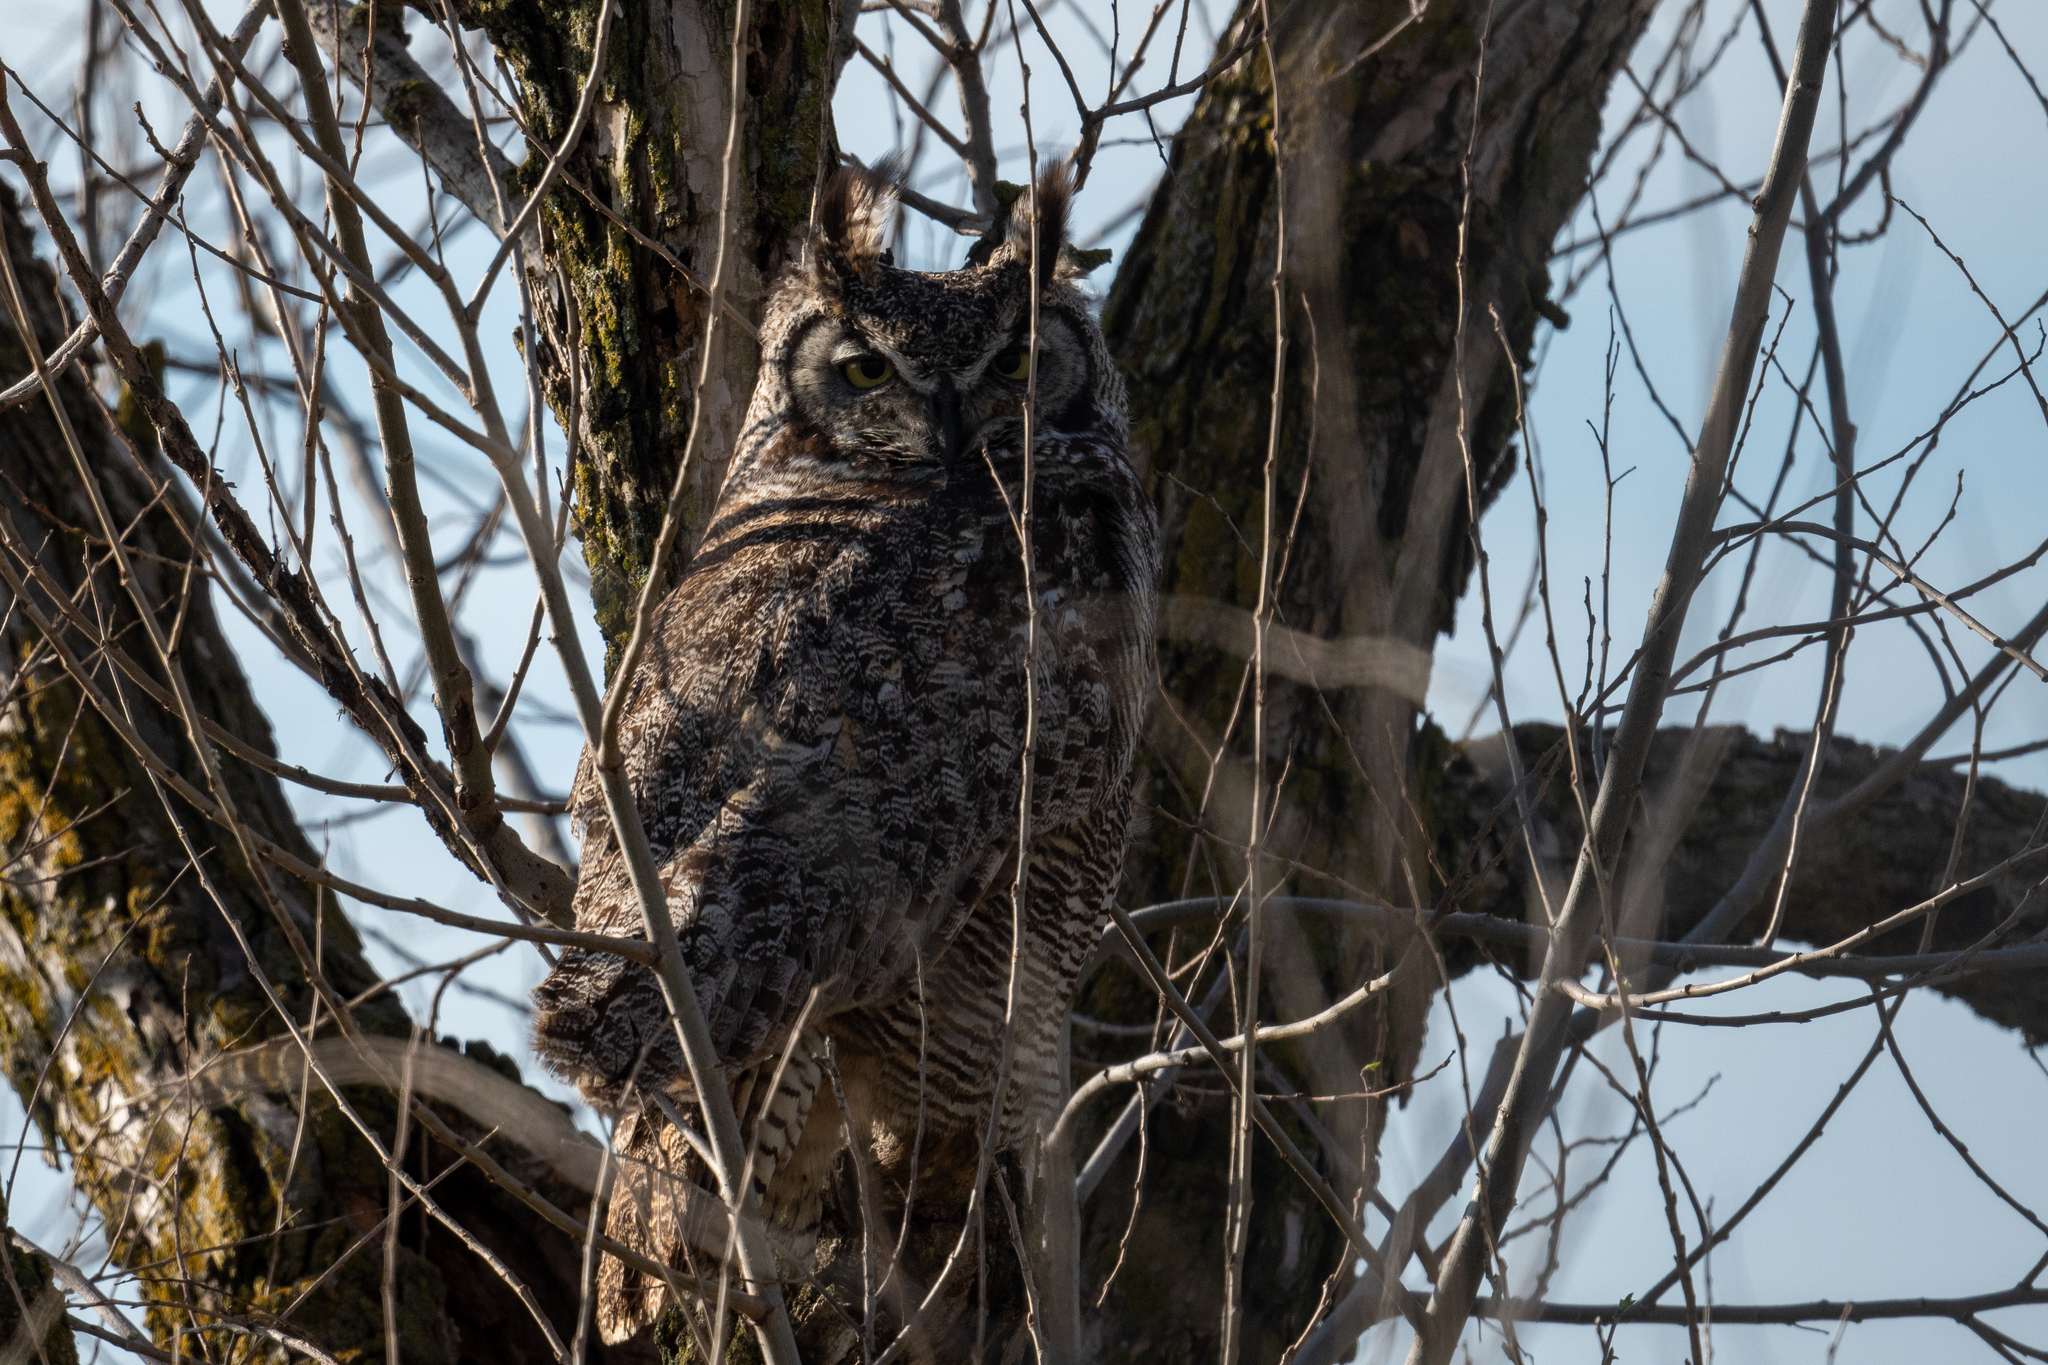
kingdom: Animalia
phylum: Chordata
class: Aves
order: Strigiformes
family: Strigidae
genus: Bubo
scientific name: Bubo virginianus
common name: Great horned owl
